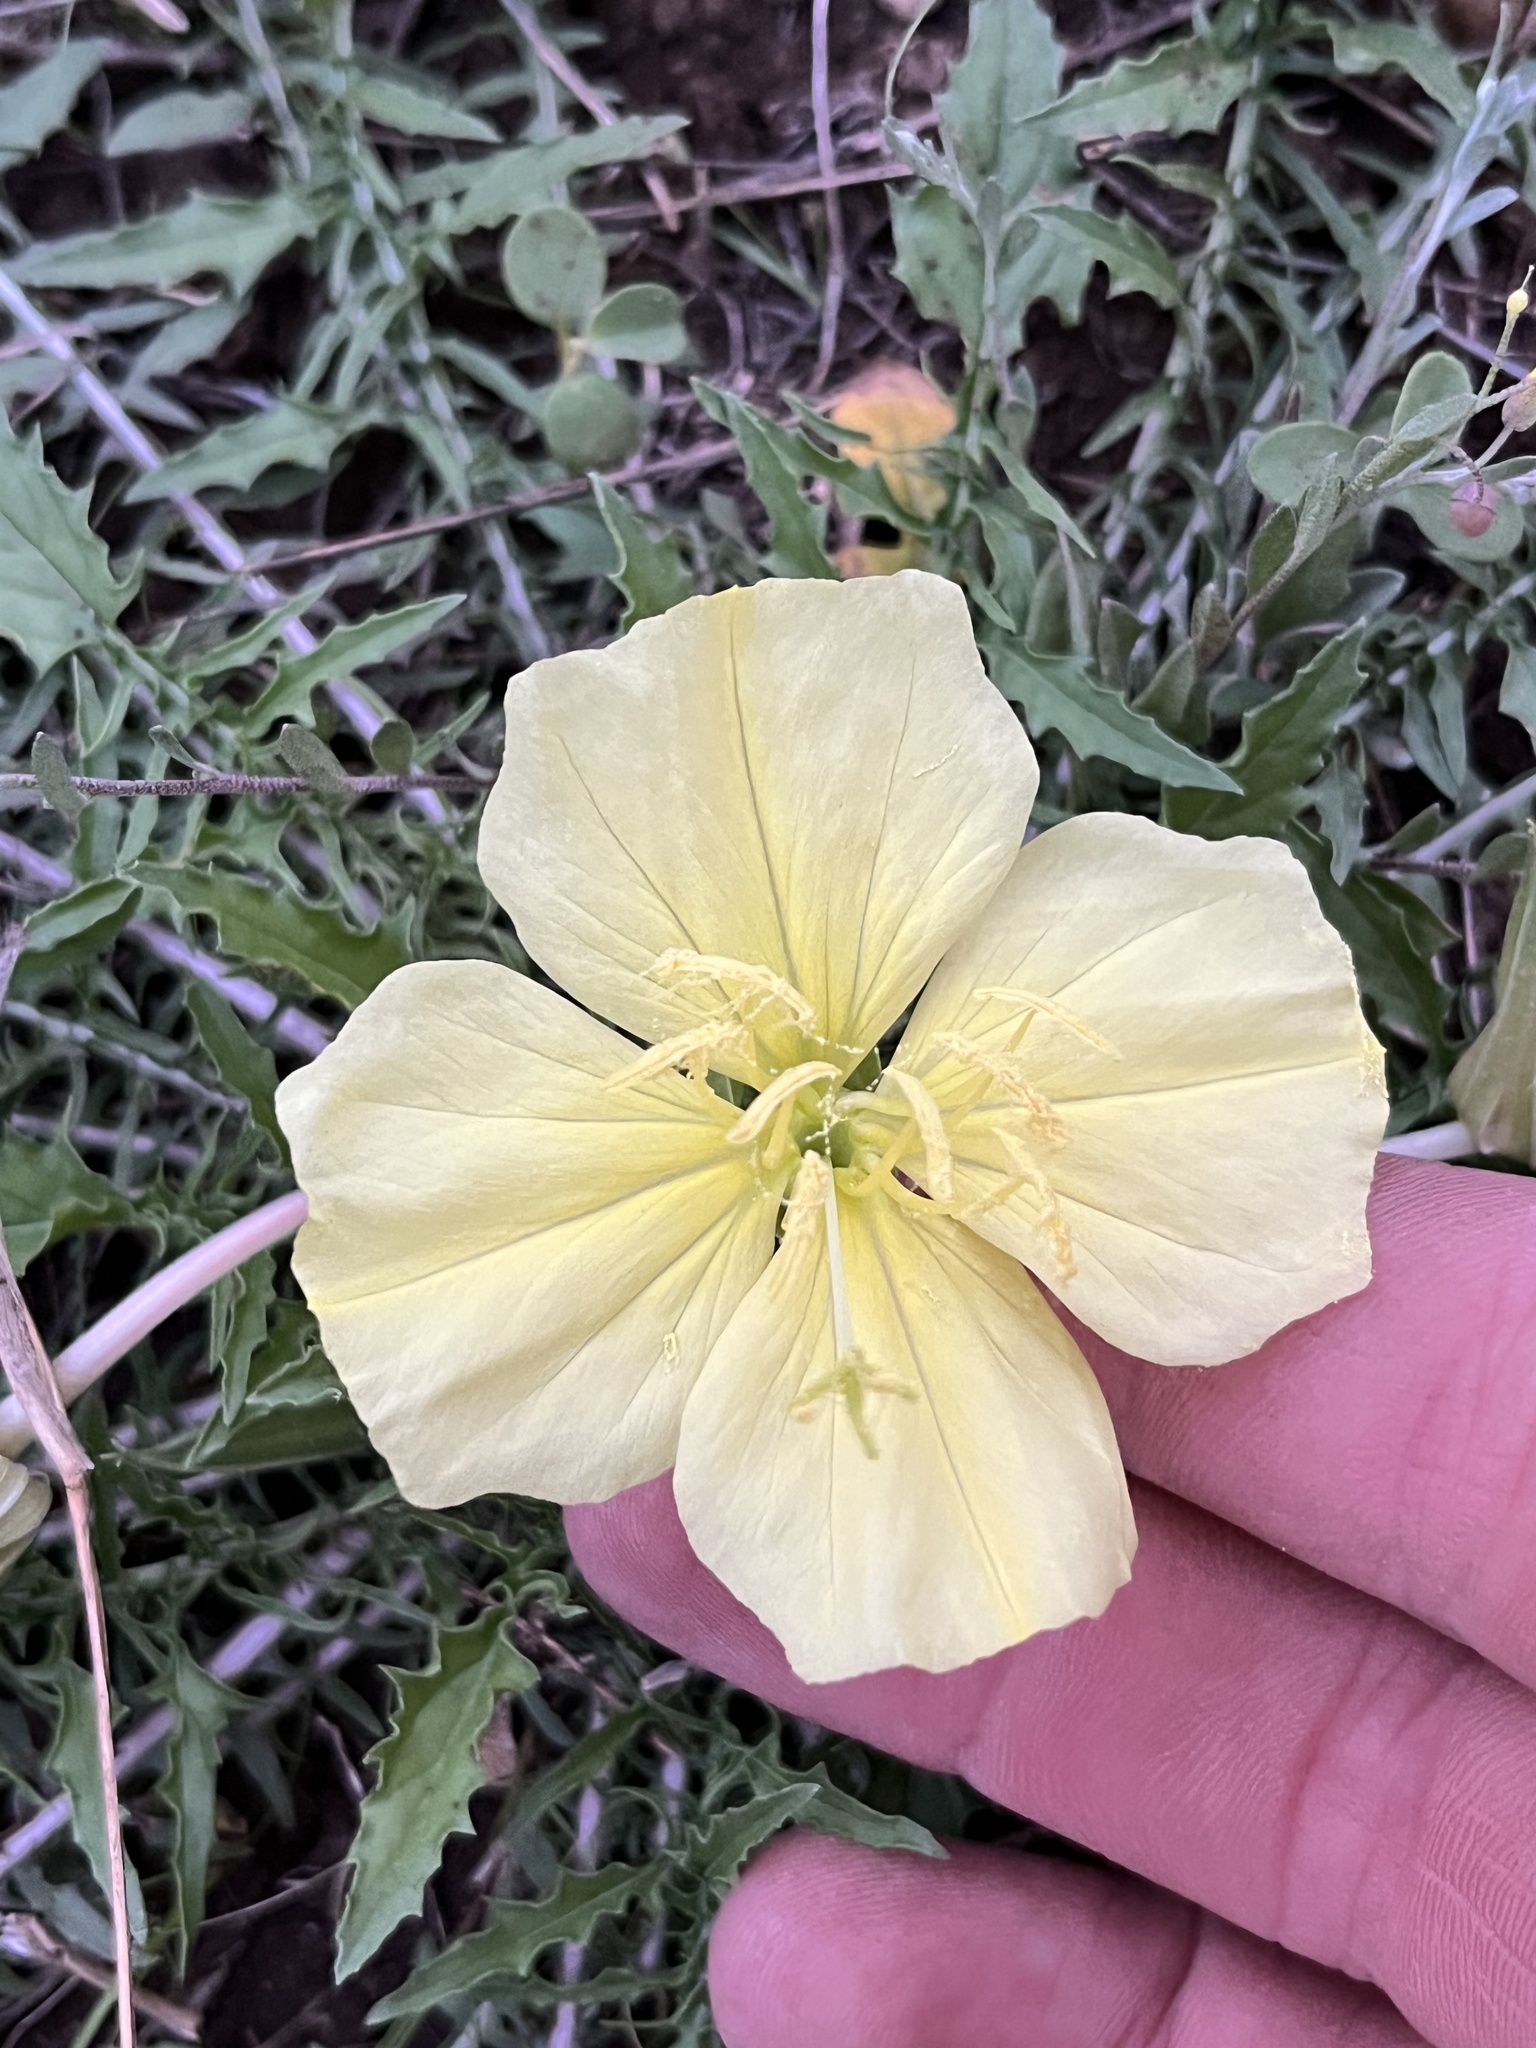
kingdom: Plantae
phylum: Tracheophyta
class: Magnoliopsida
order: Myrtales
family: Onagraceae
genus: Oenothera
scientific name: Oenothera triloba
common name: Sessile evening-primrose
